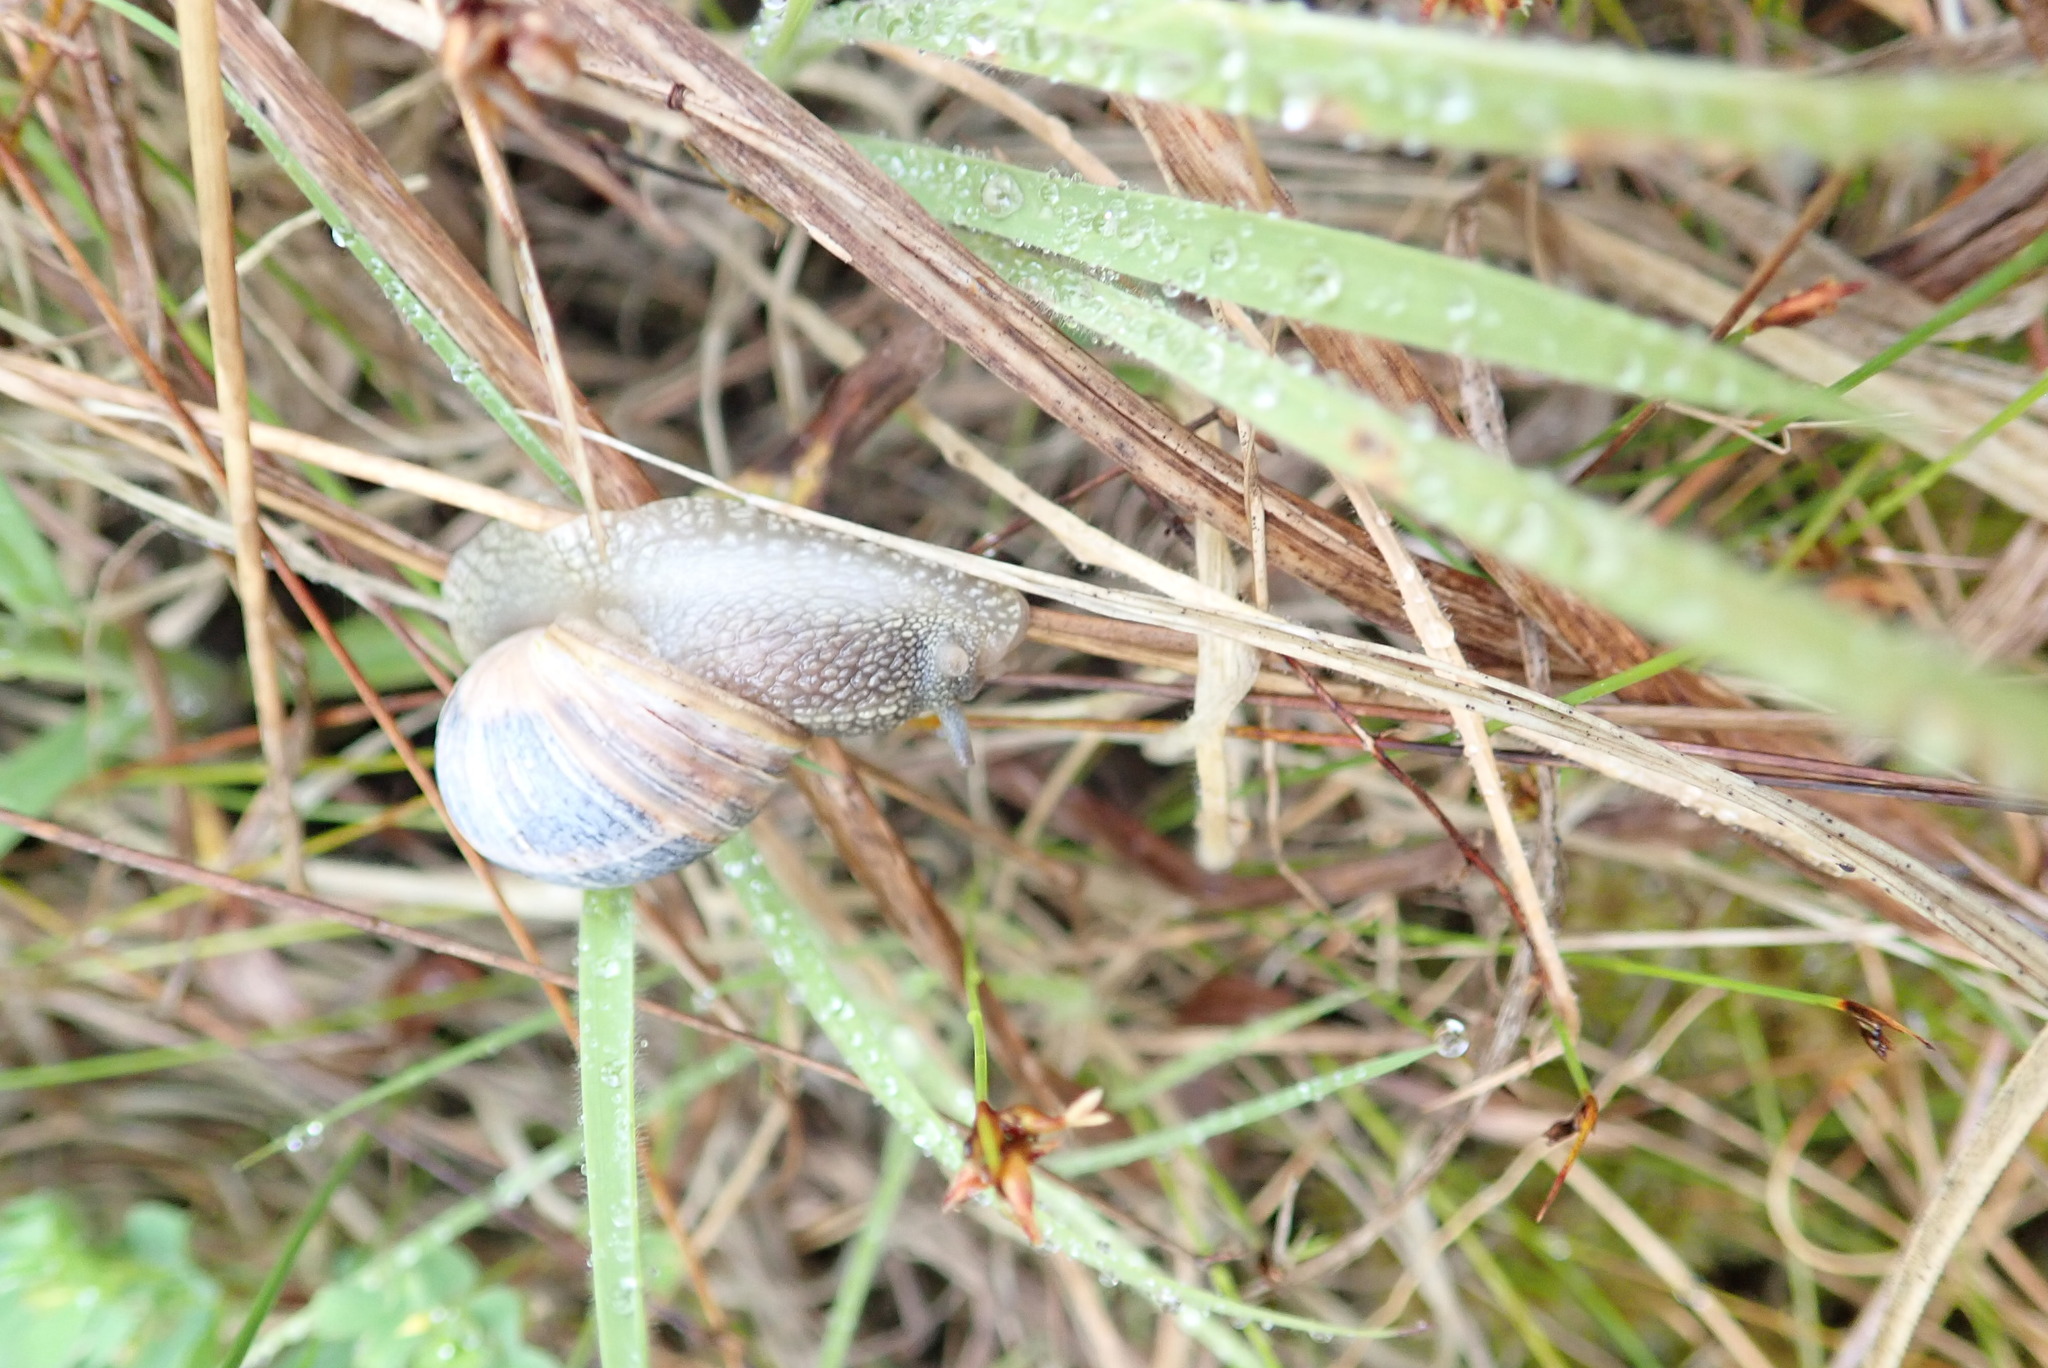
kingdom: Animalia
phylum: Mollusca
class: Gastropoda
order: Stylommatophora
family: Helicidae
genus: Cornu
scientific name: Cornu aspersum
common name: Brown garden snail
